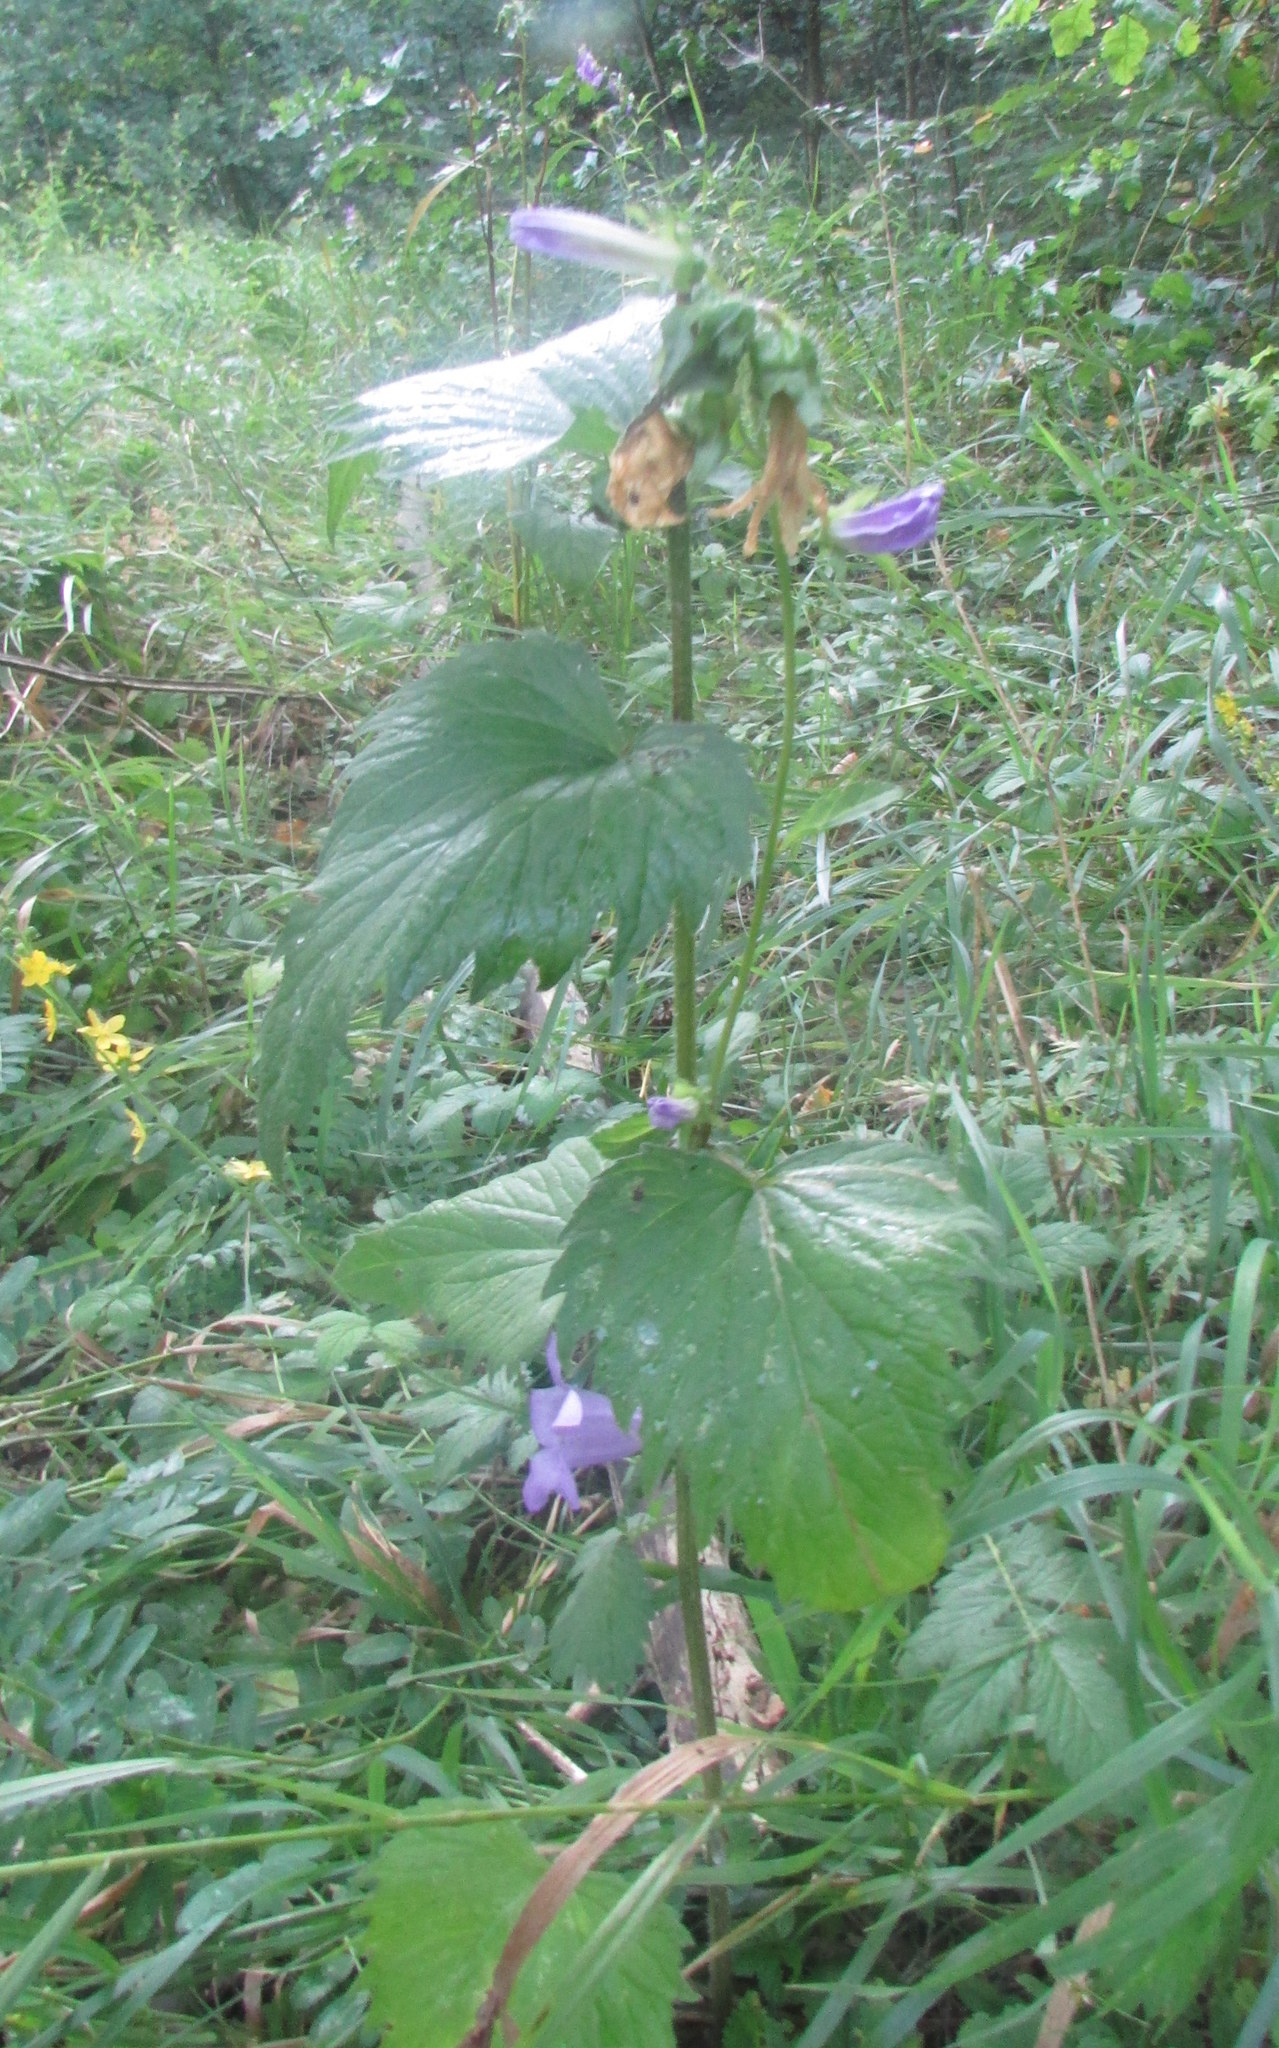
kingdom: Plantae
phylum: Tracheophyta
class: Magnoliopsida
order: Asterales
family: Campanulaceae
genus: Campanula
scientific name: Campanula trachelium
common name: Nettle-leaved bellflower
